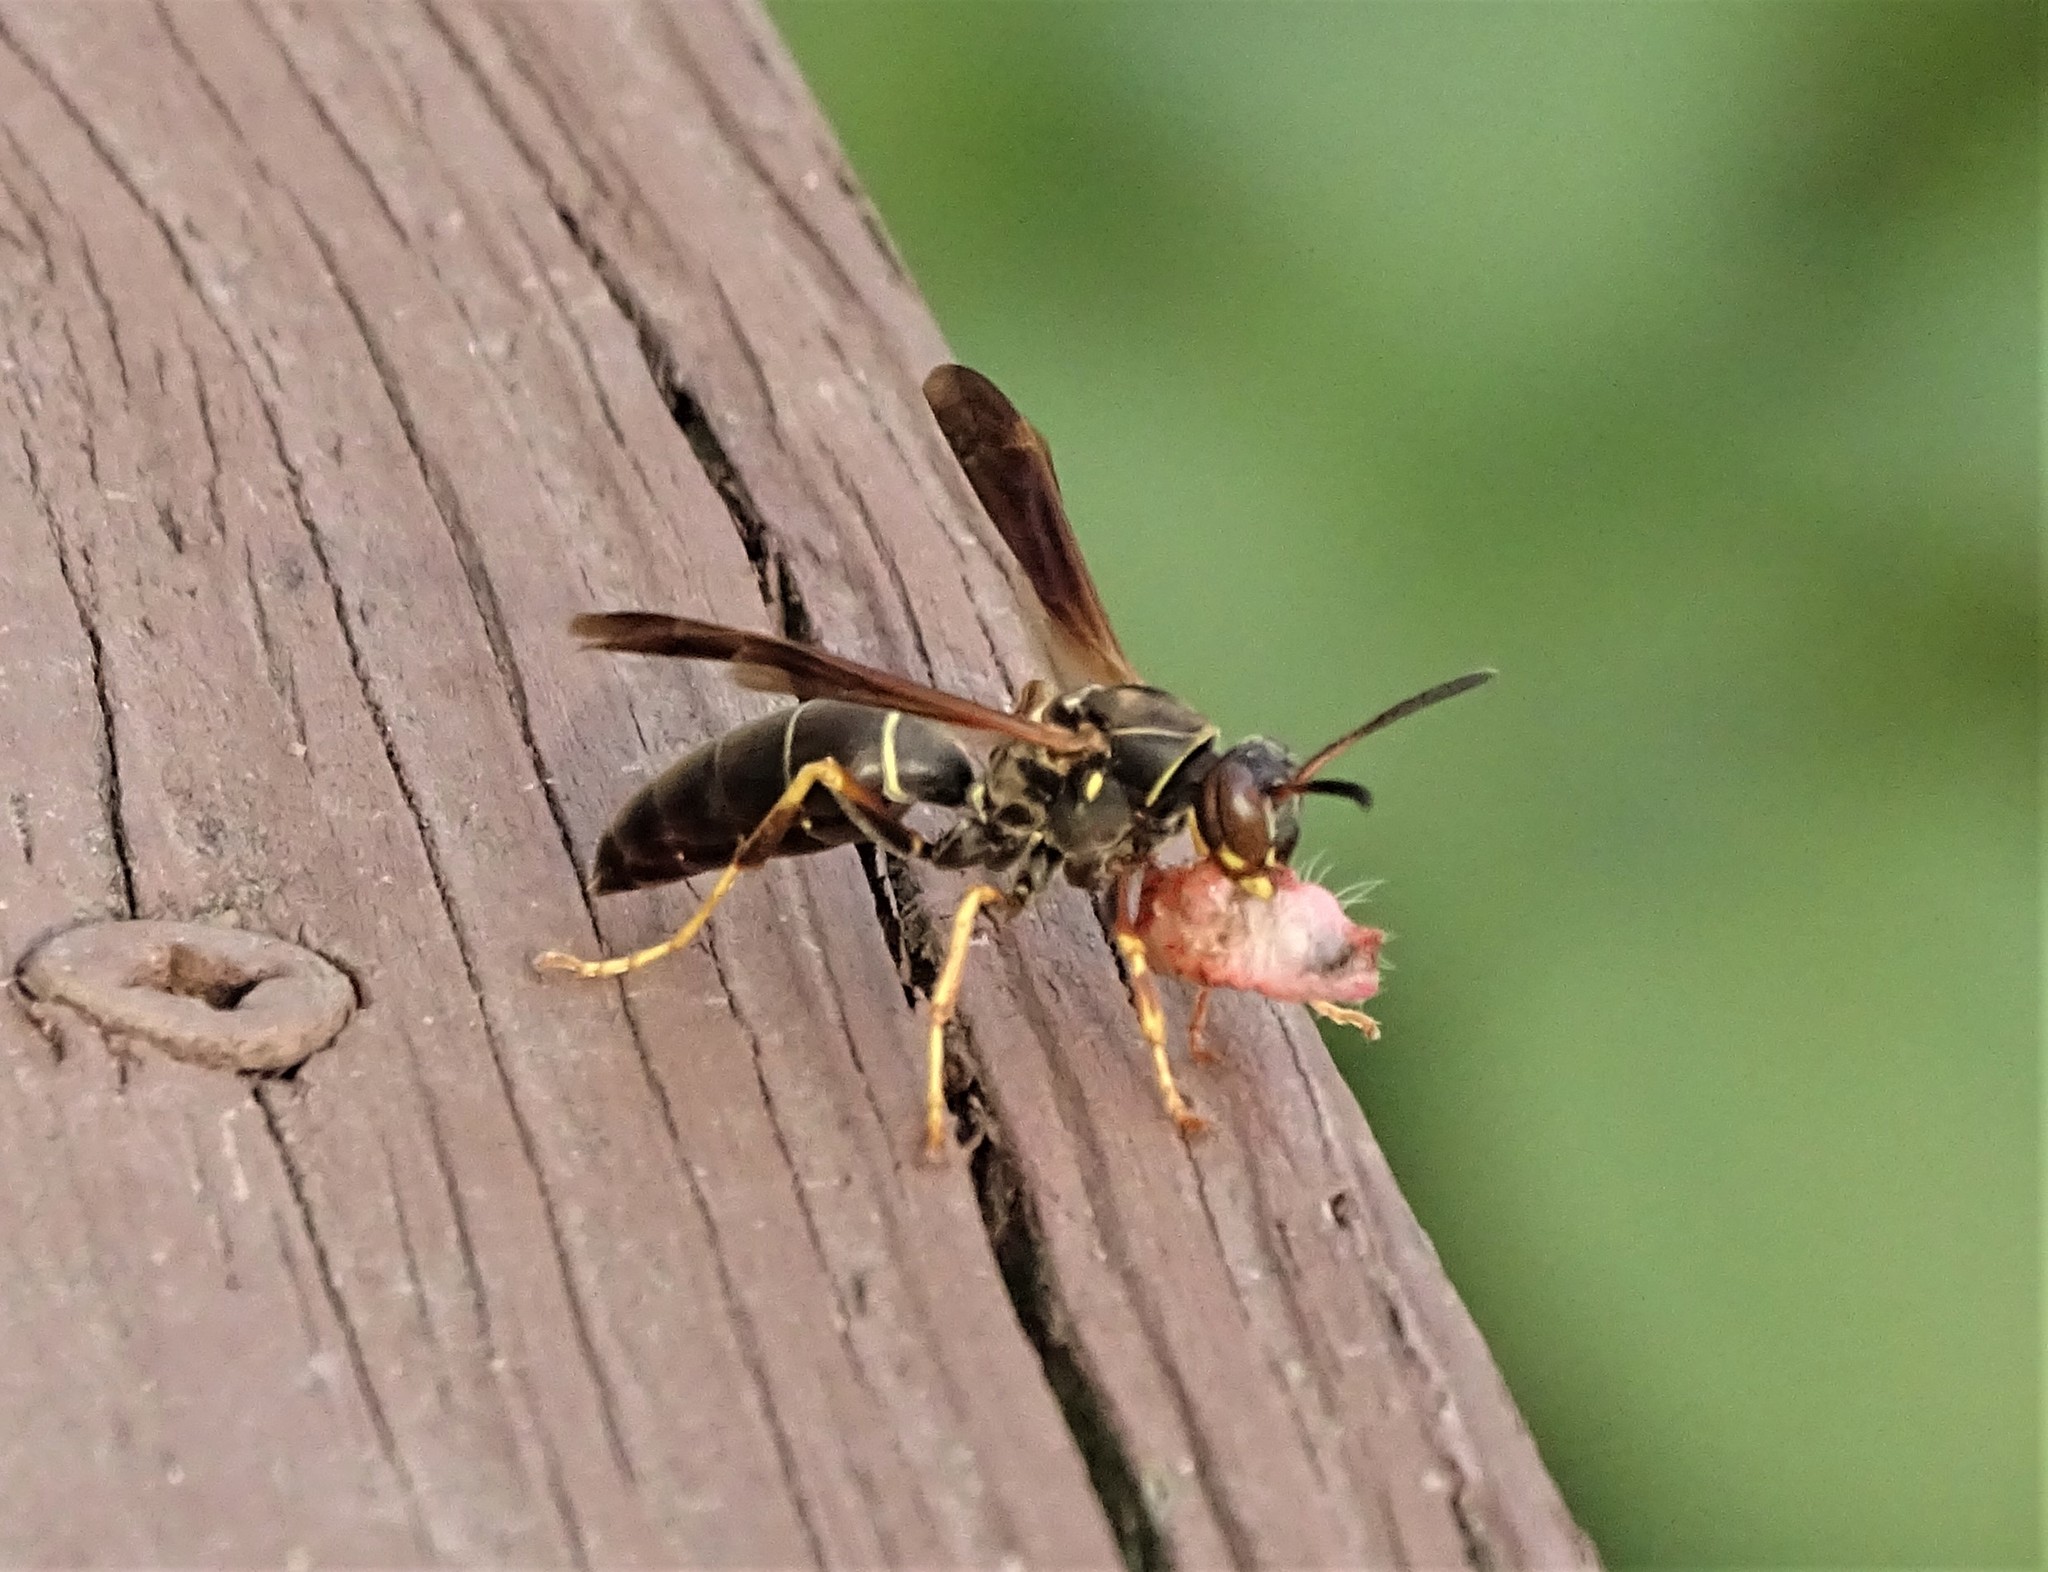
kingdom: Animalia
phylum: Arthropoda
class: Insecta
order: Hymenoptera
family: Eumenidae
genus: Polistes
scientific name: Polistes fuscatus
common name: Dark paper wasp
